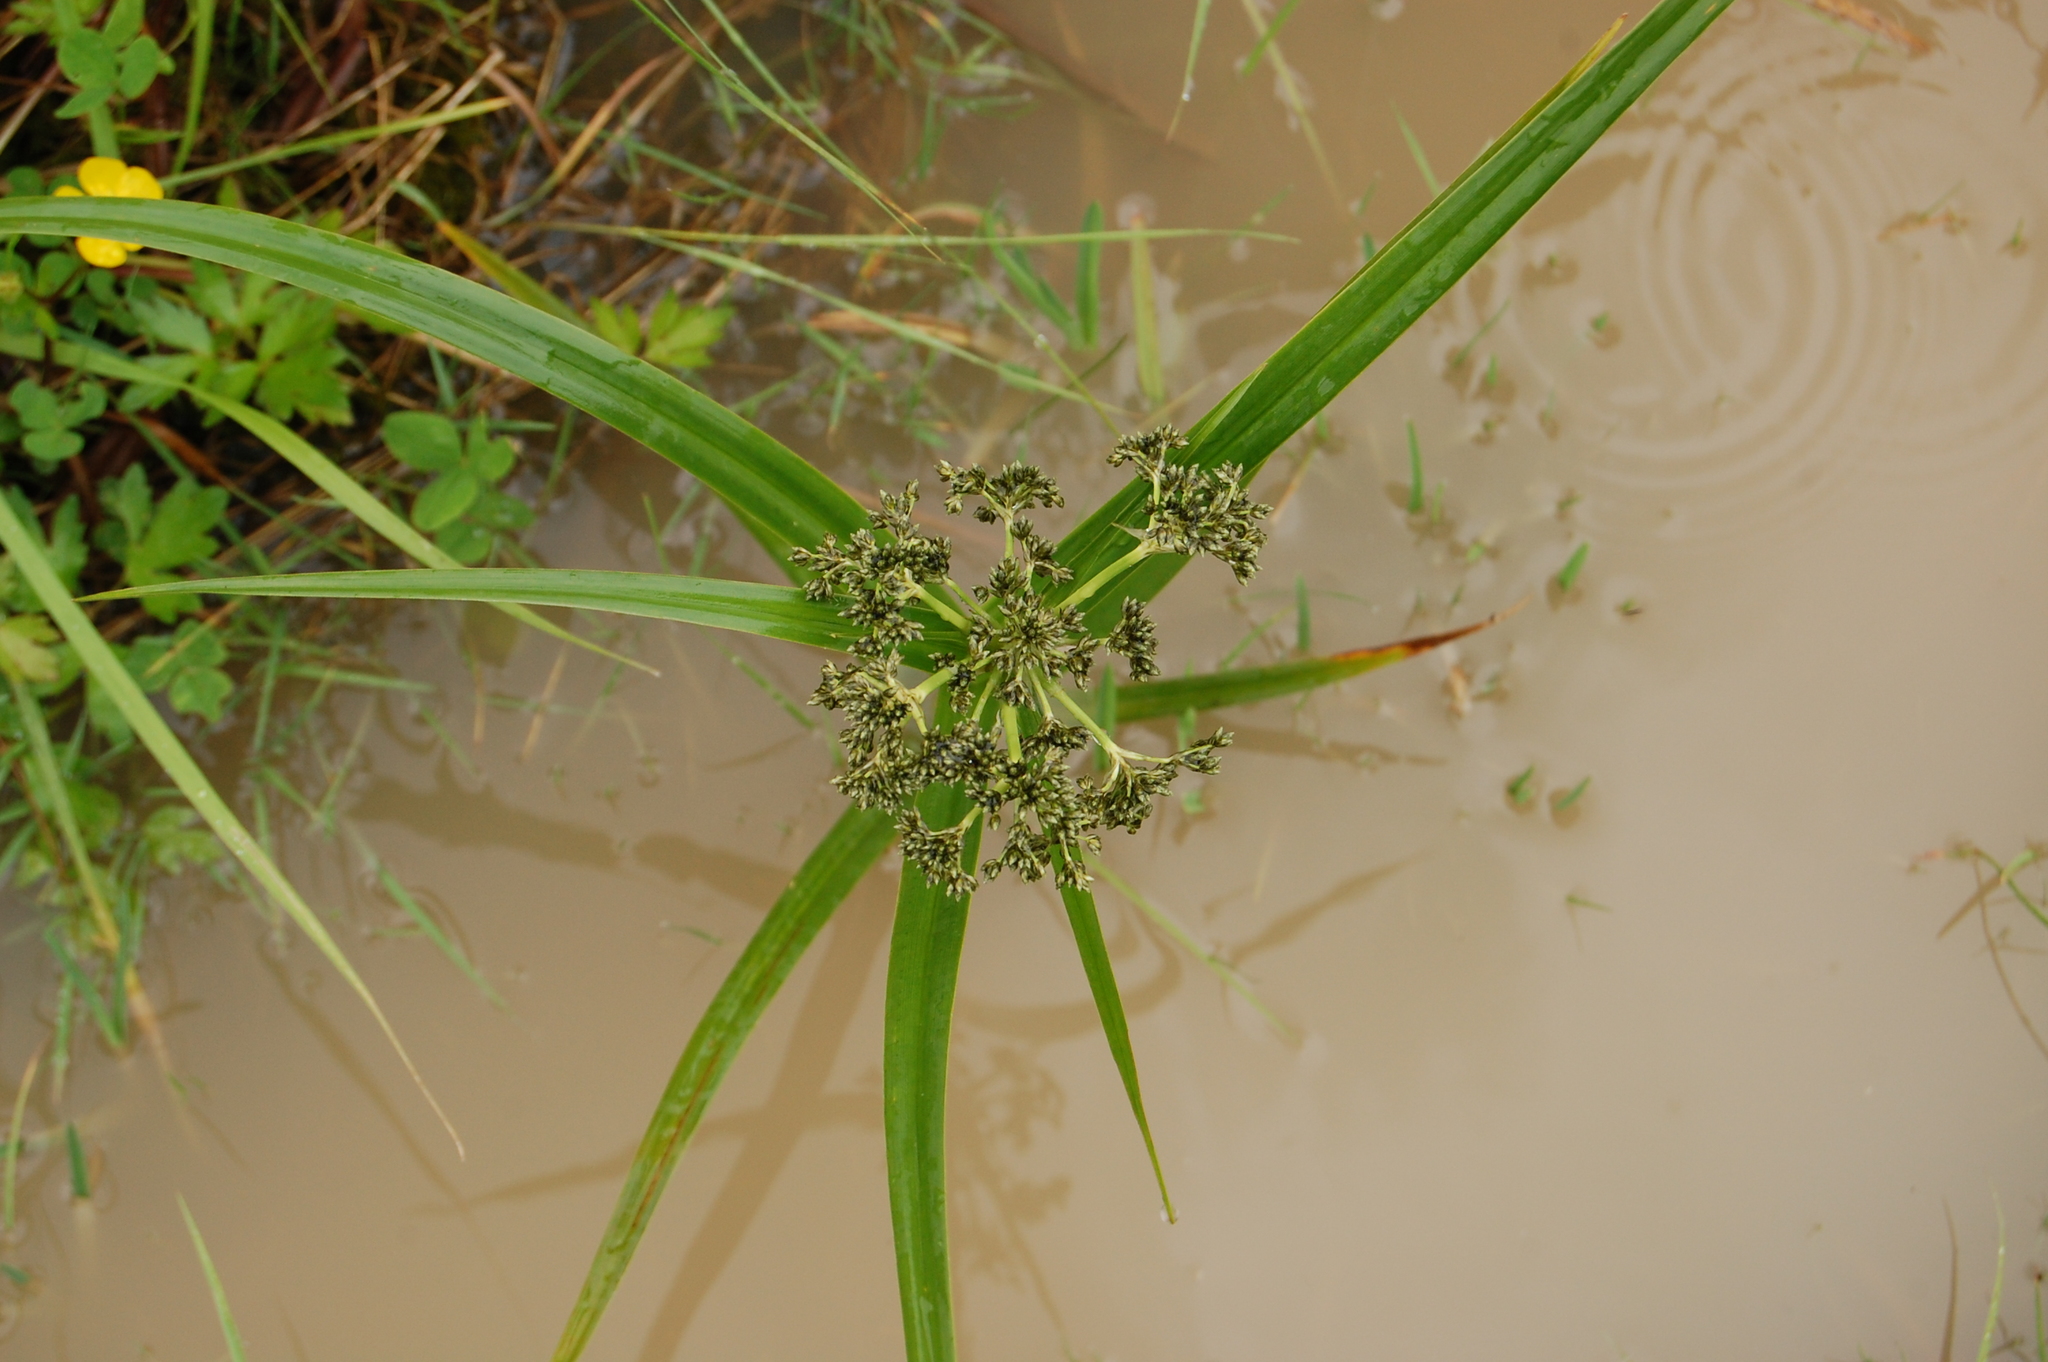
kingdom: Plantae
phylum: Tracheophyta
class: Liliopsida
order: Poales
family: Cyperaceae
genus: Scirpus
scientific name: Scirpus sylvaticus
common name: Wood club-rush
